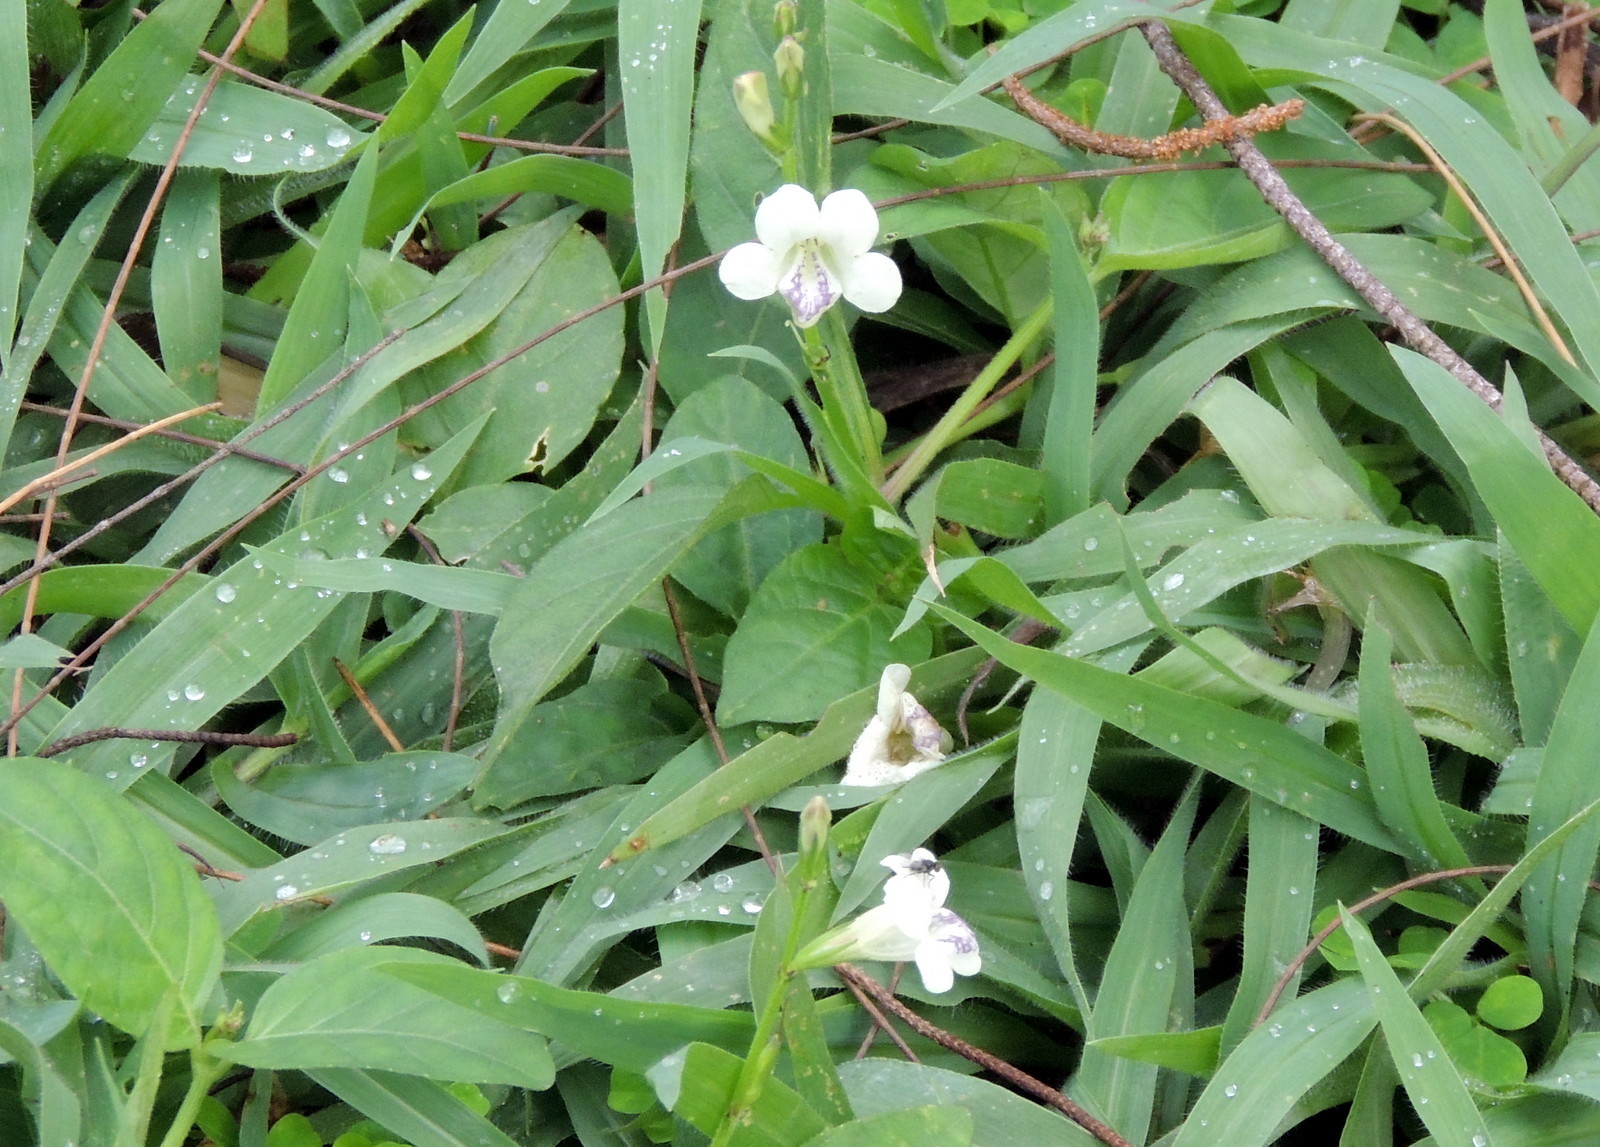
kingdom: Plantae
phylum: Tracheophyta
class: Magnoliopsida
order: Lamiales
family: Acanthaceae
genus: Asystasia
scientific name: Asystasia intrusa
